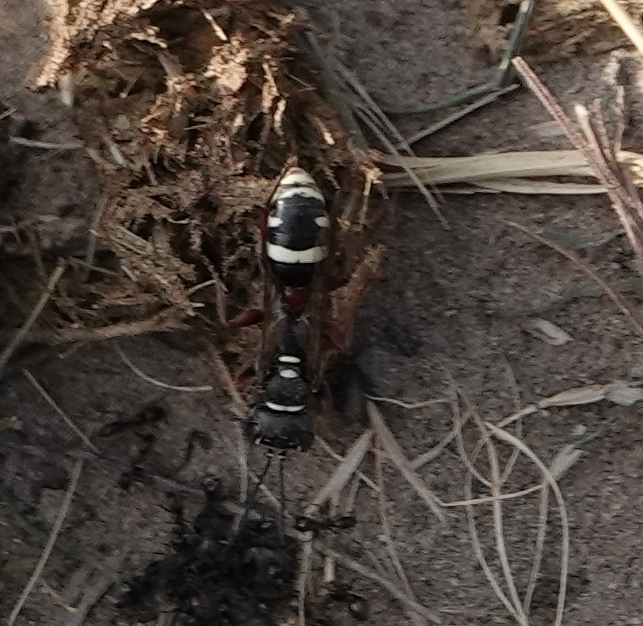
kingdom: Animalia
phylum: Arthropoda
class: Insecta
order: Hymenoptera
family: Crabronidae
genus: Mellinus
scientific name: Mellinus rufinodus
